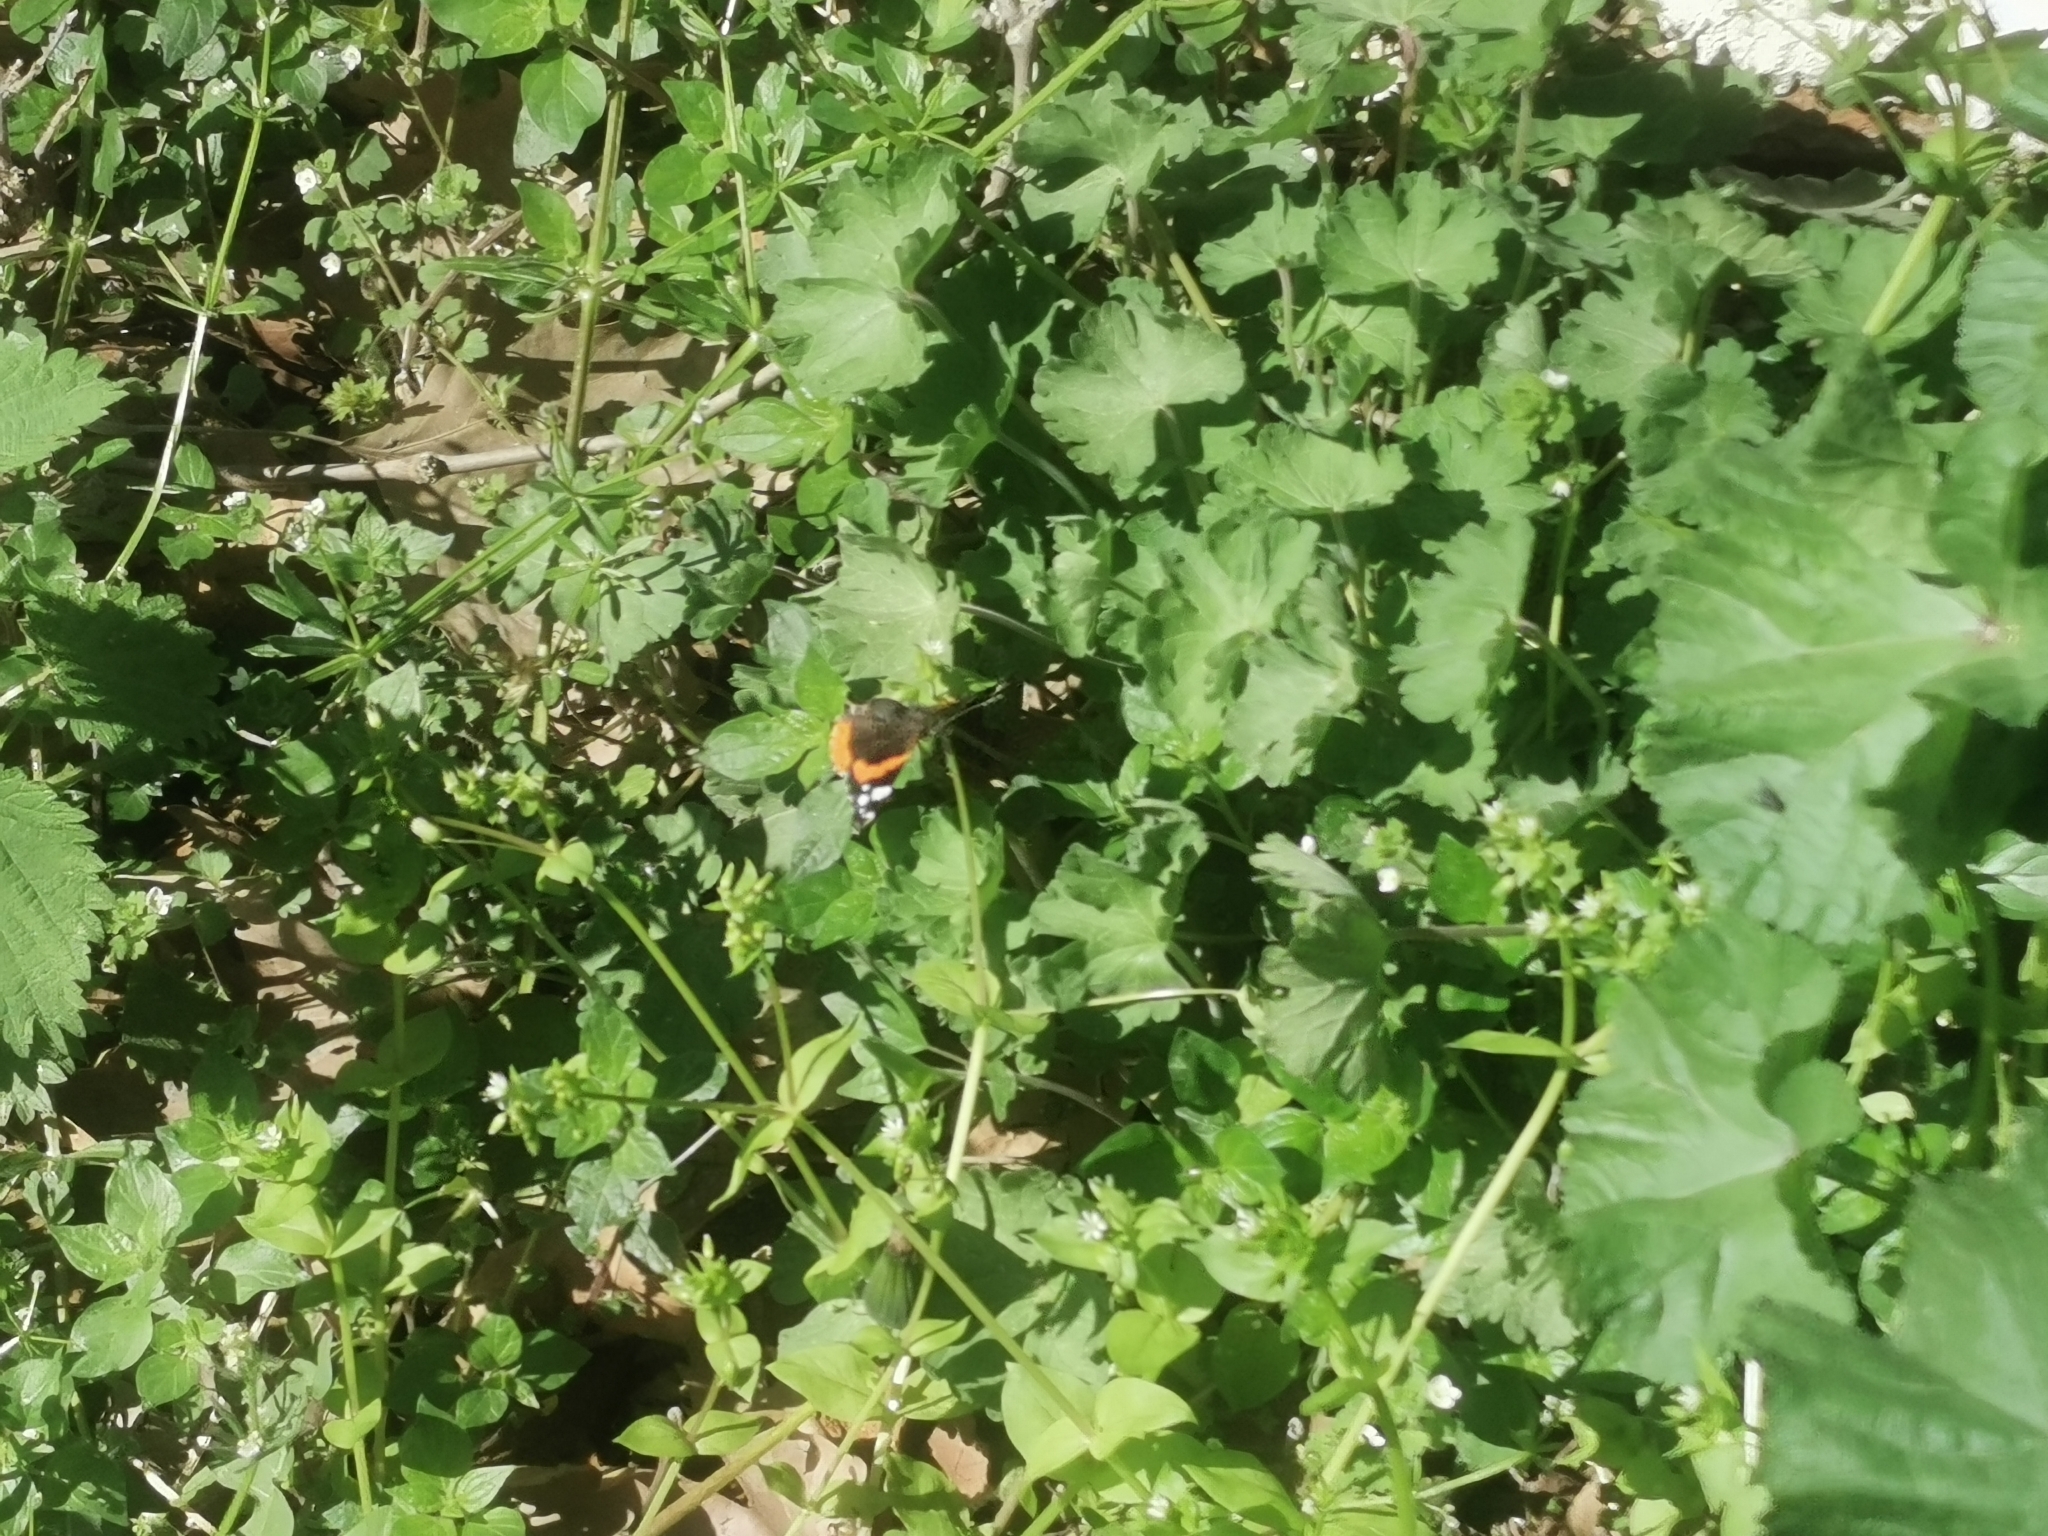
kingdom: Animalia
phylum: Arthropoda
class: Insecta
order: Lepidoptera
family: Nymphalidae
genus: Vanessa
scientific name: Vanessa atalanta
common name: Red admiral
